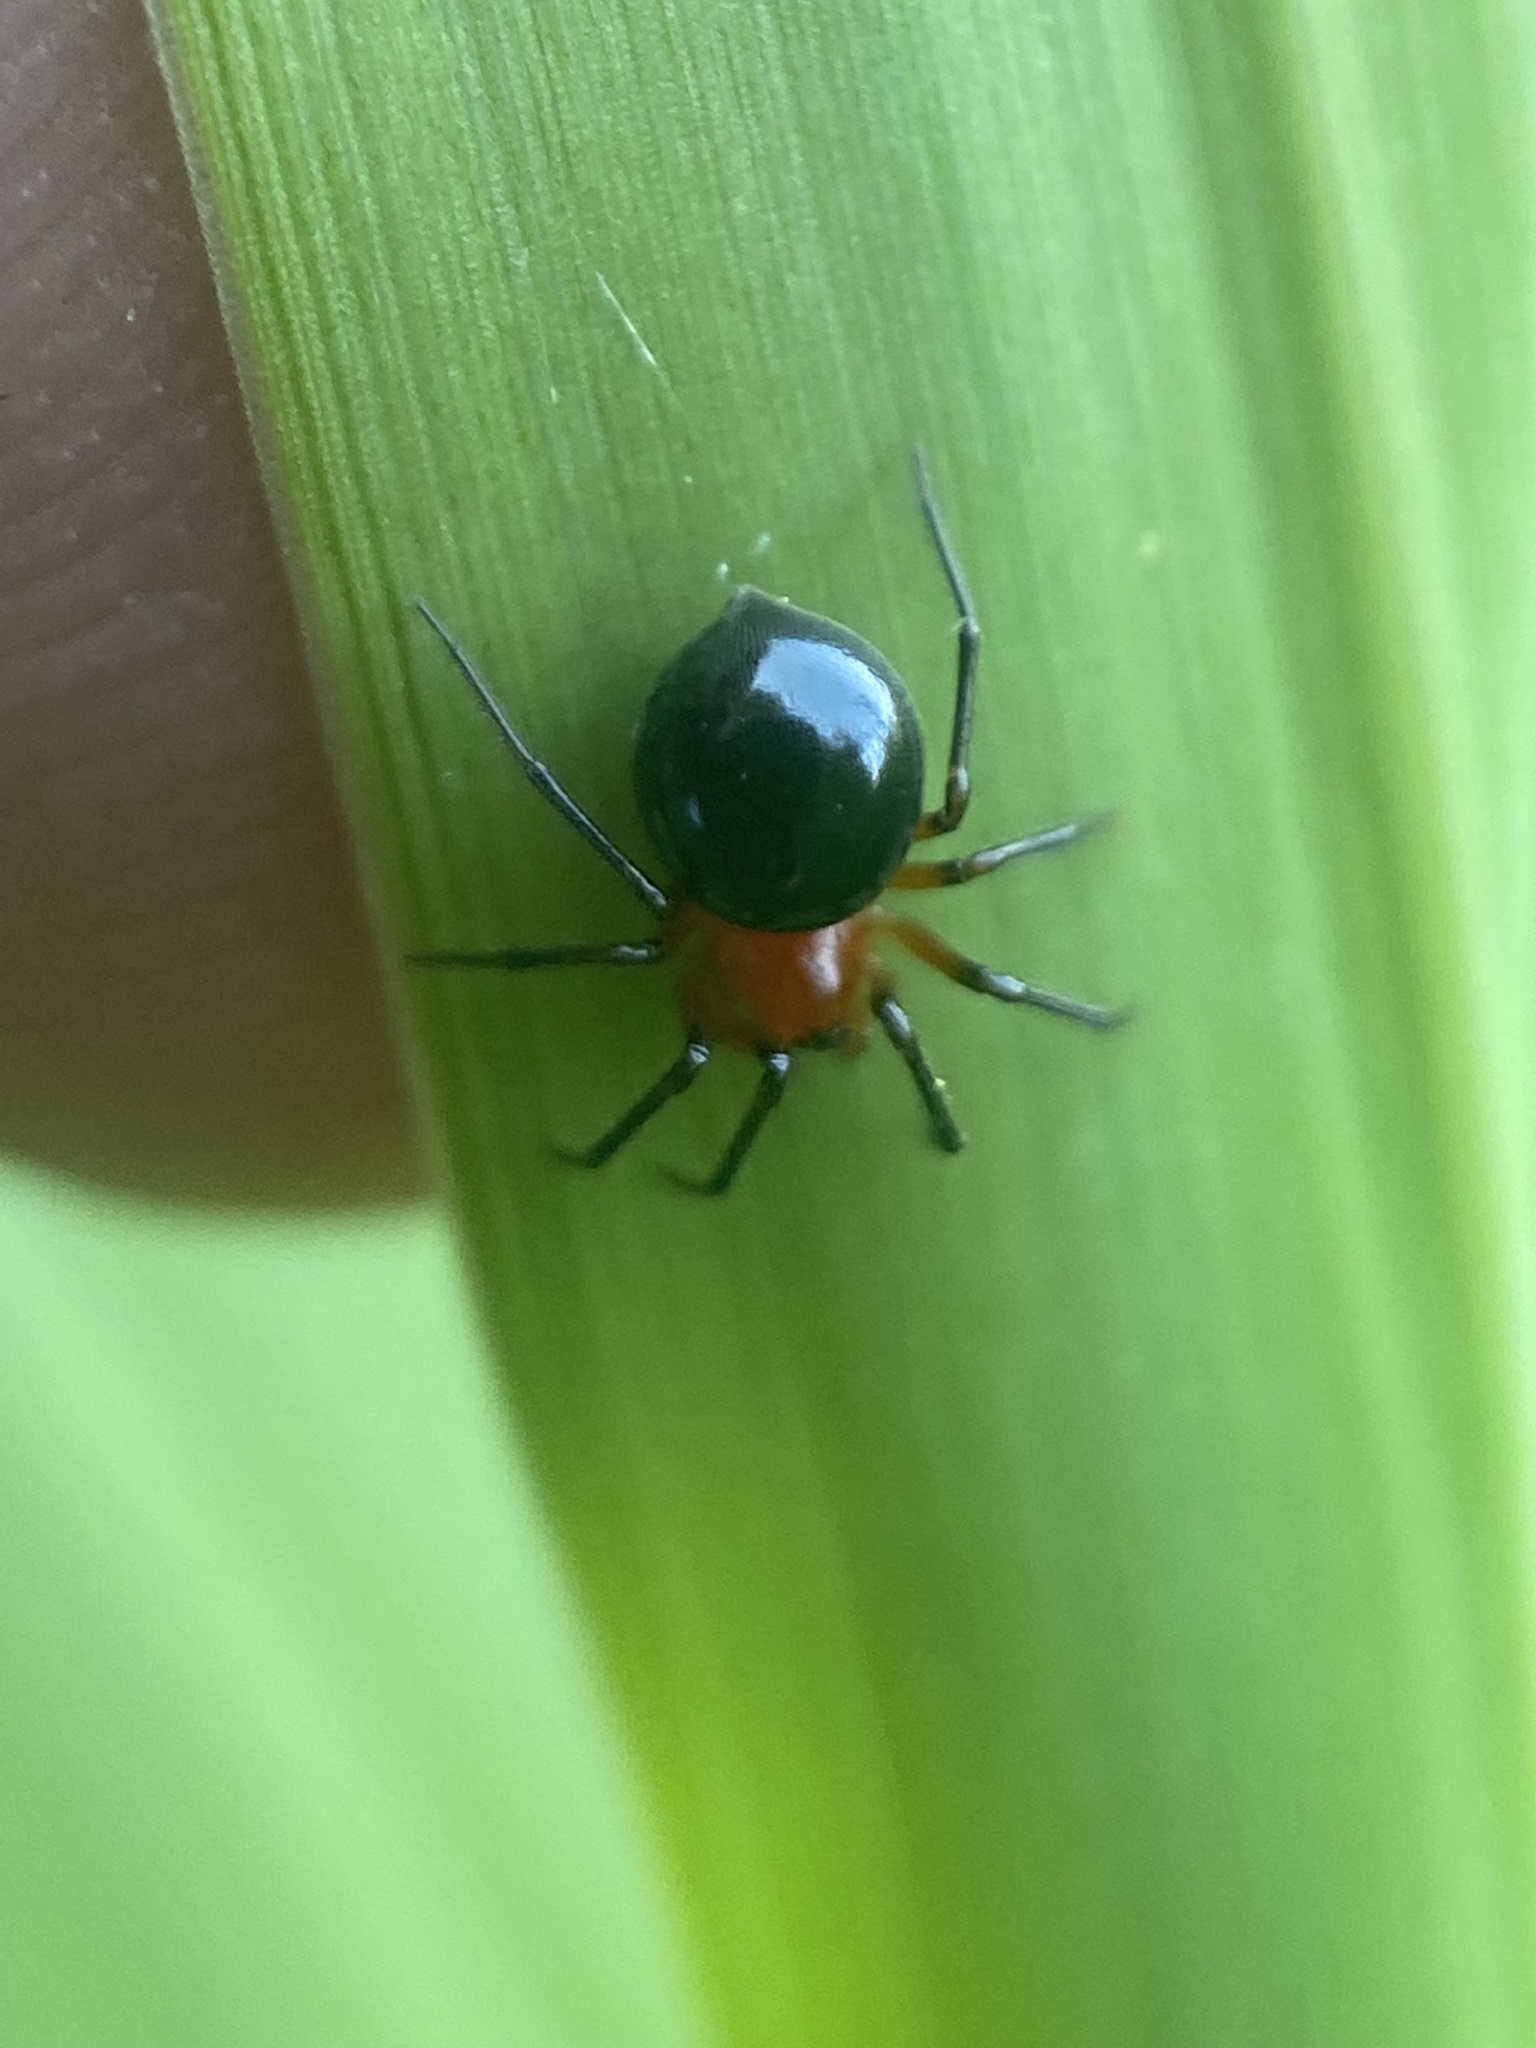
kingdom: Animalia
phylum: Arthropoda
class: Arachnida
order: Araneae
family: Linyphiidae
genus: Hypselistes
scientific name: Hypselistes florens
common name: Peatland sheetweb weaver
